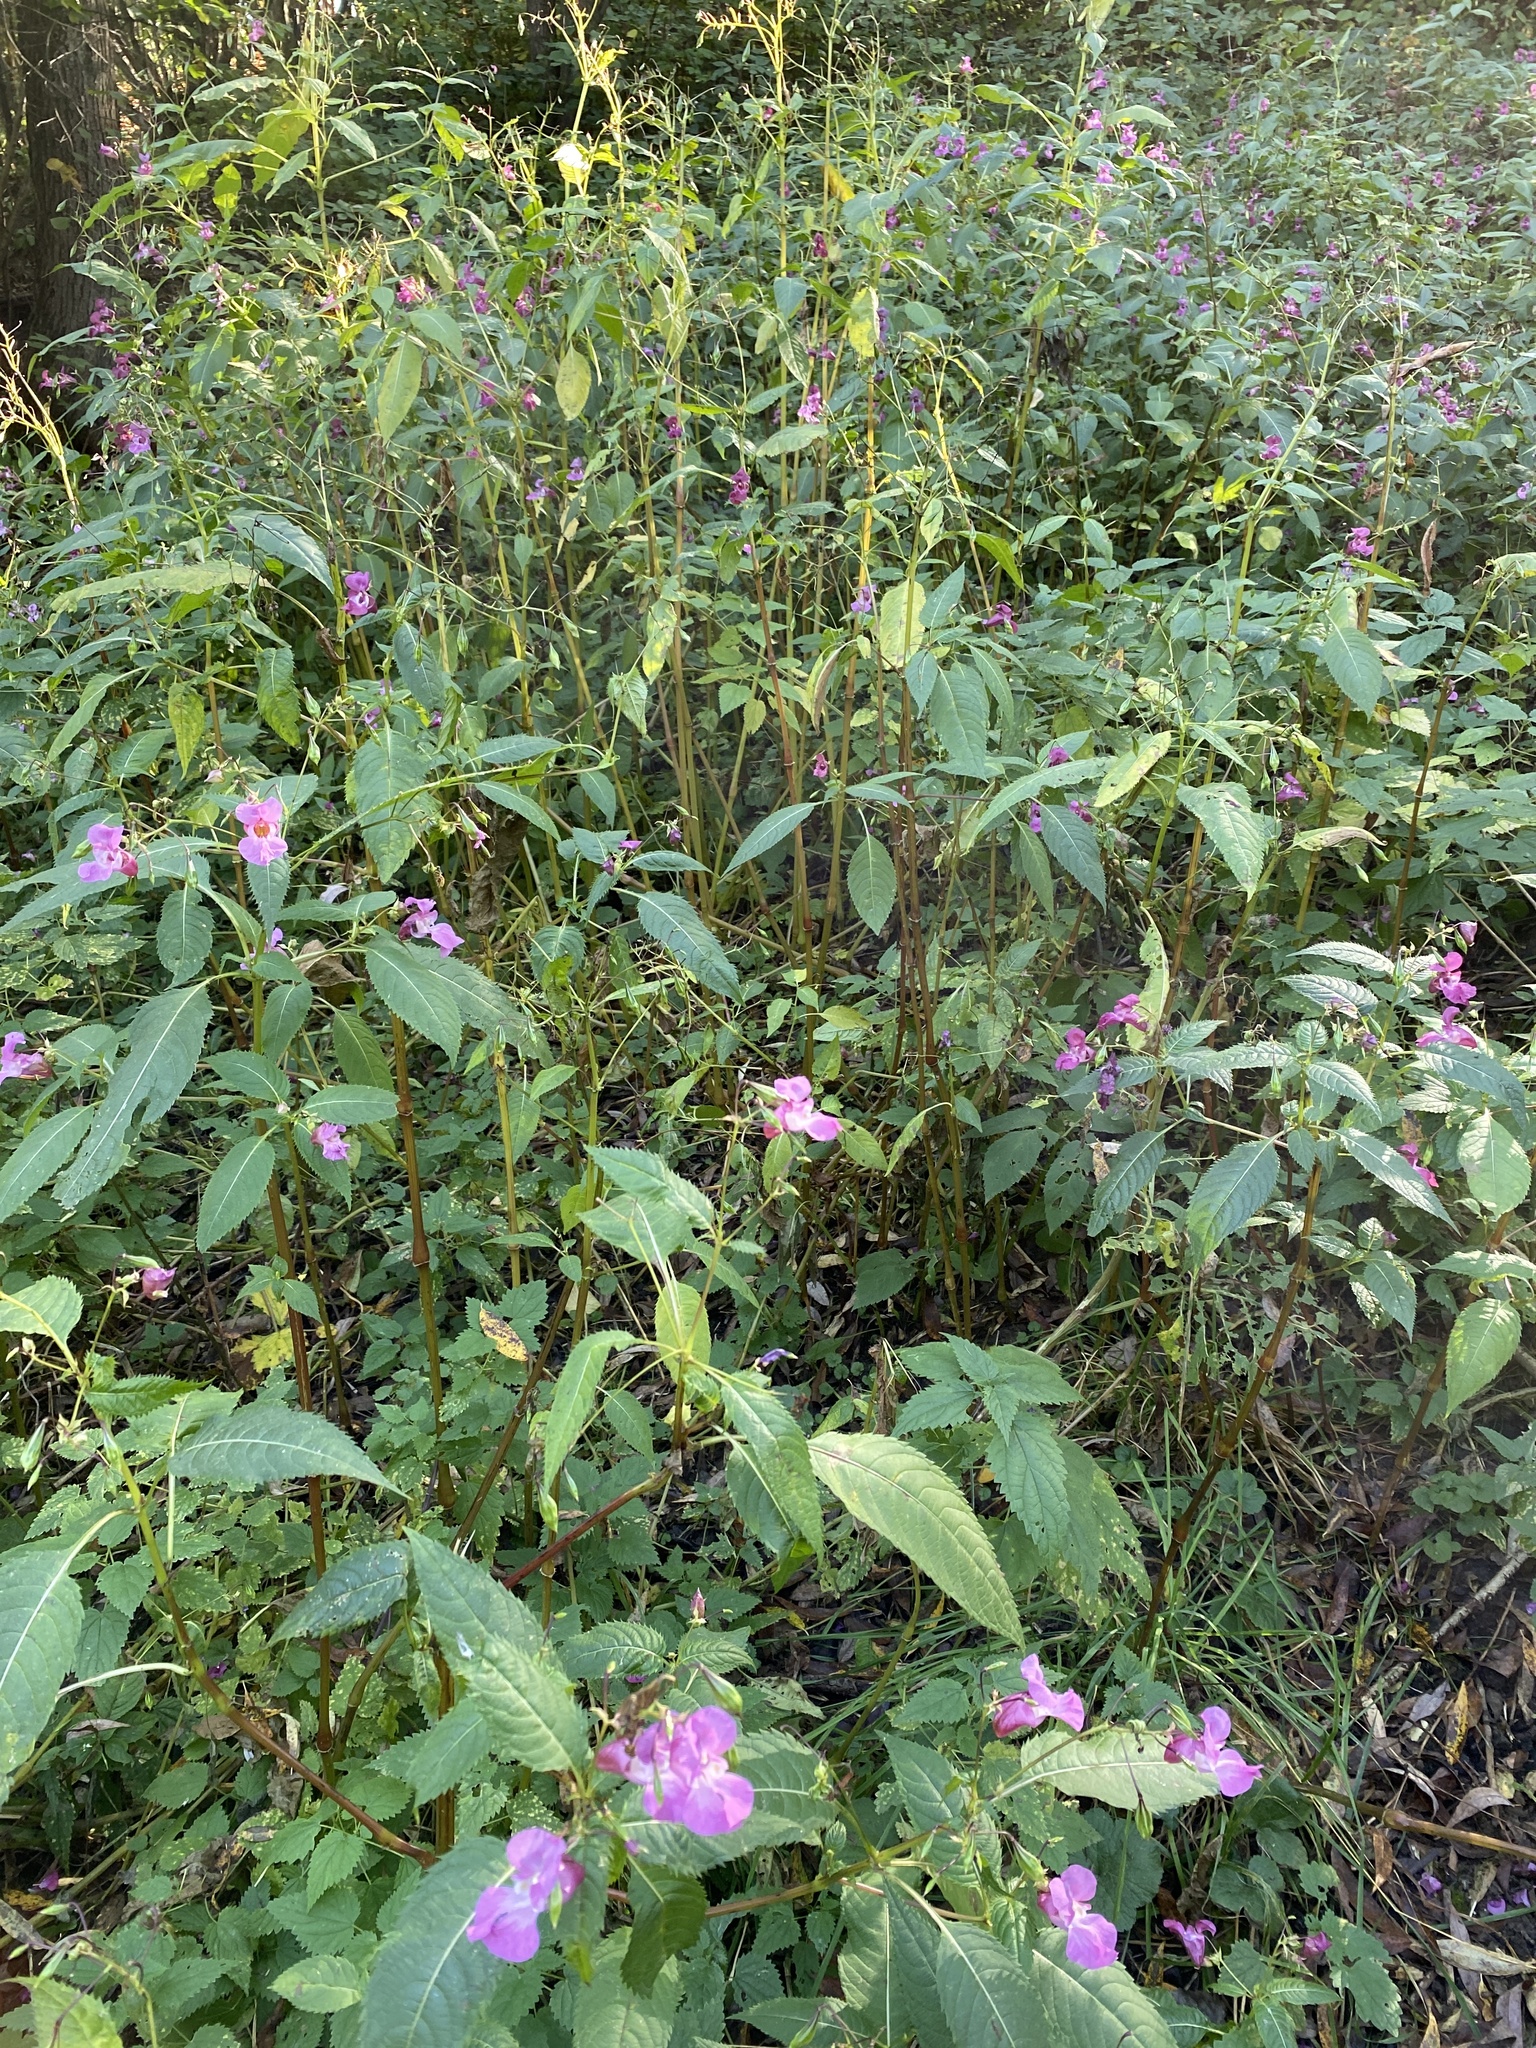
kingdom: Plantae
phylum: Tracheophyta
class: Magnoliopsida
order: Ericales
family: Balsaminaceae
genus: Impatiens
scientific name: Impatiens glandulifera
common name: Himalayan balsam
